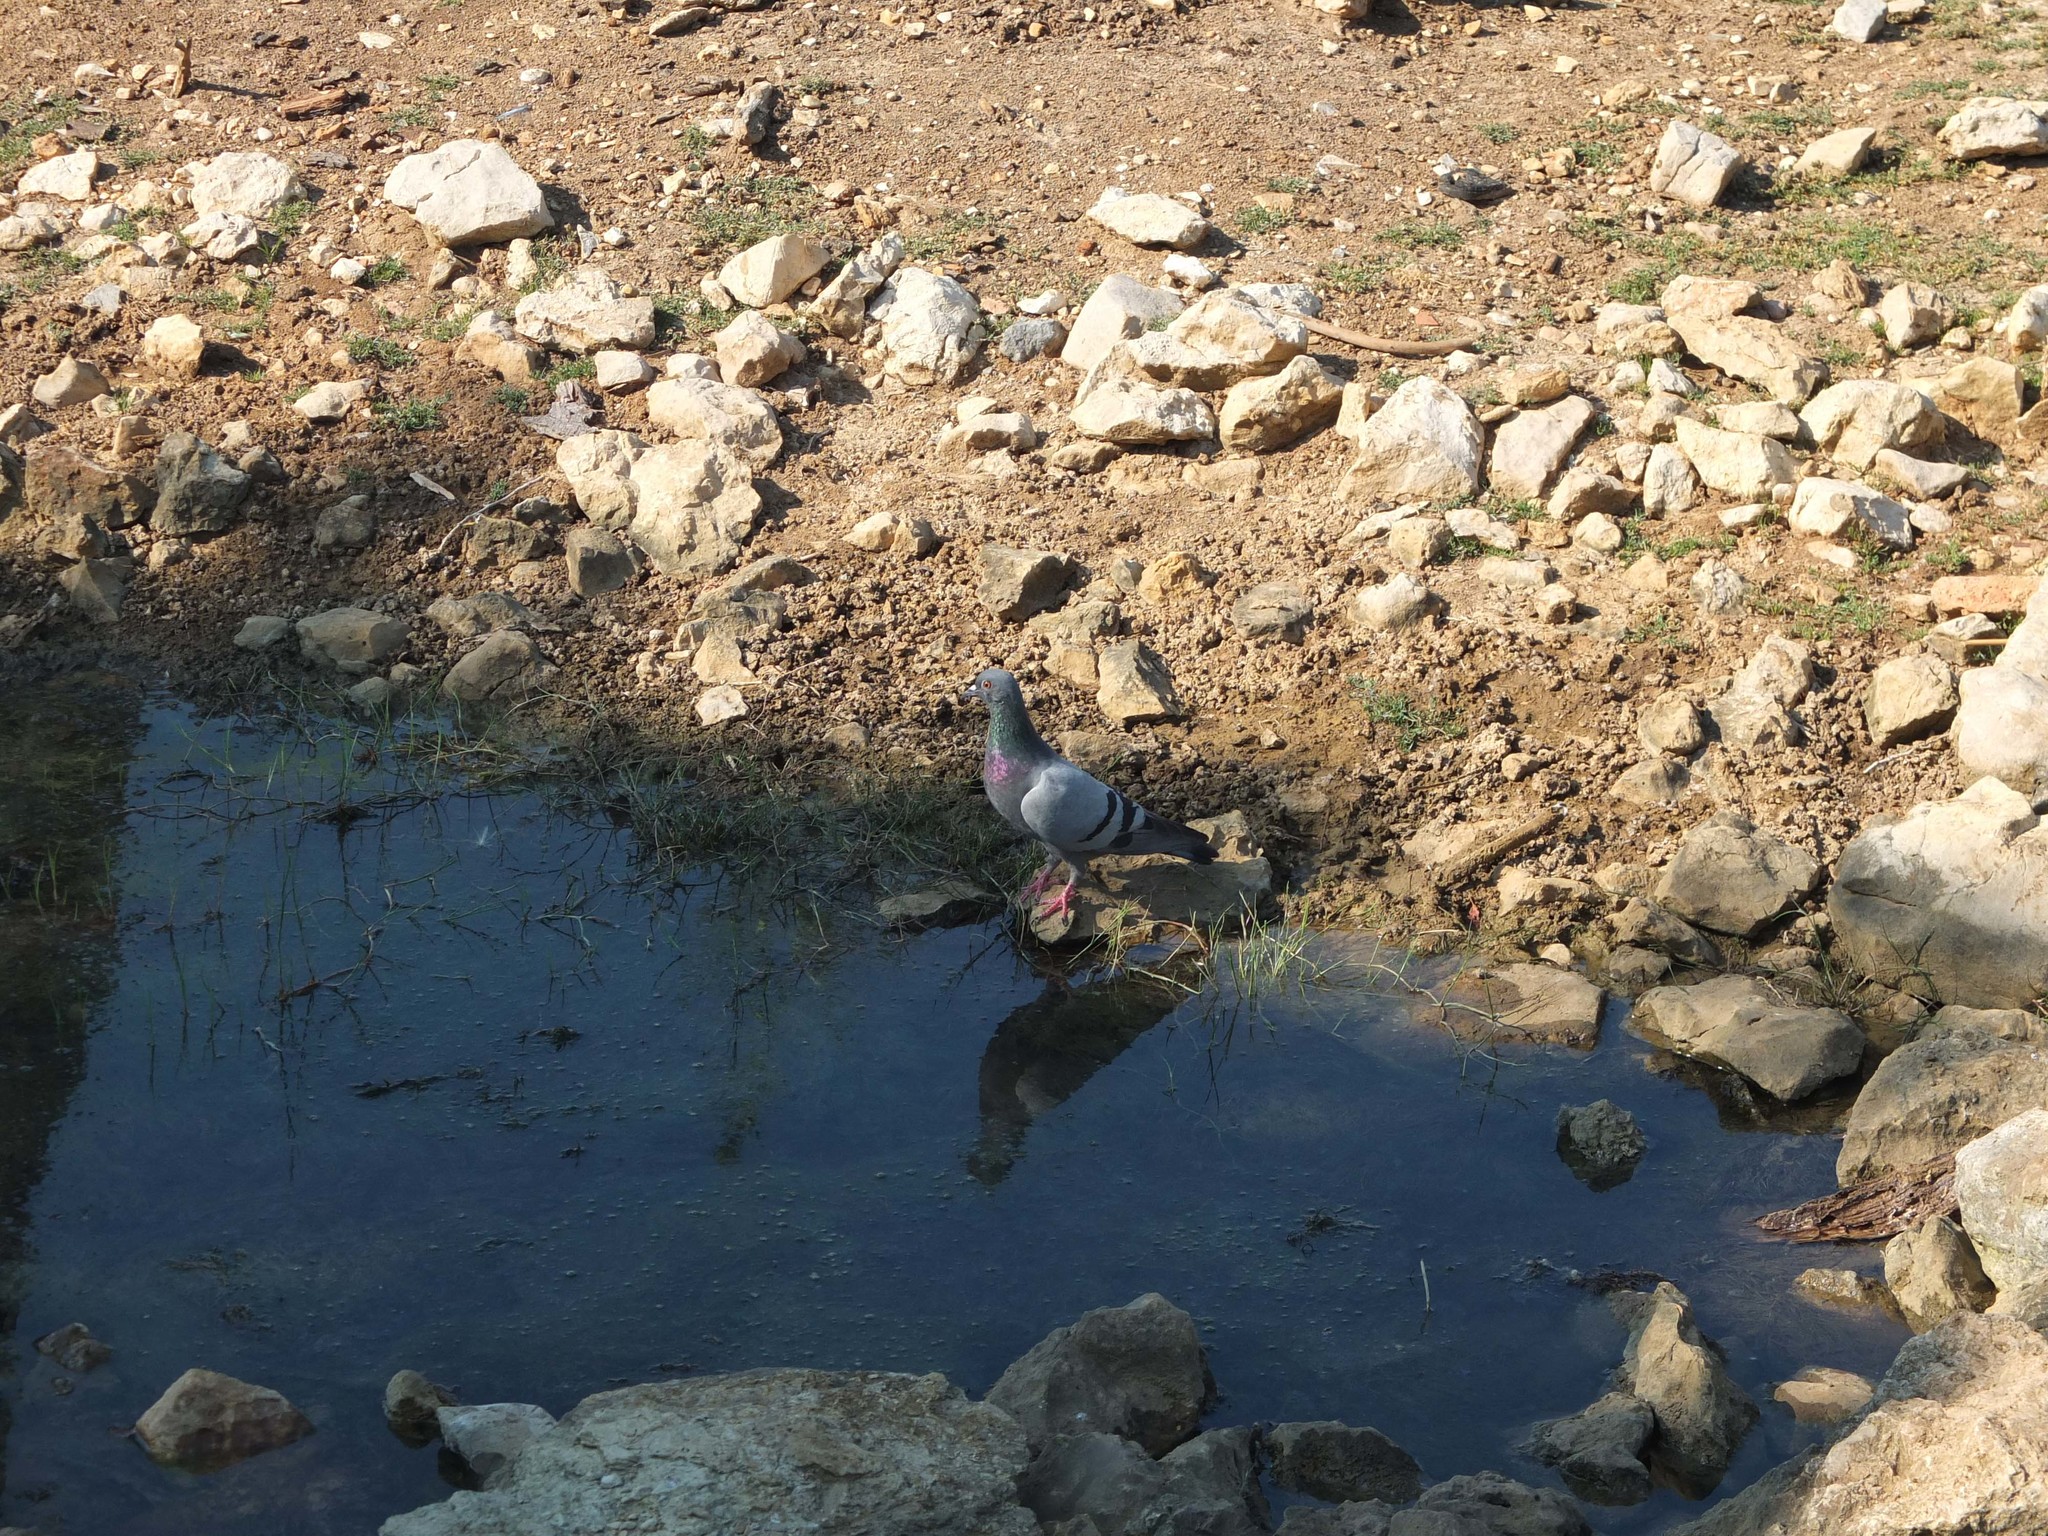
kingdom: Animalia
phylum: Chordata
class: Aves
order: Columbiformes
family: Columbidae
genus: Columba
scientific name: Columba livia
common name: Rock pigeon
